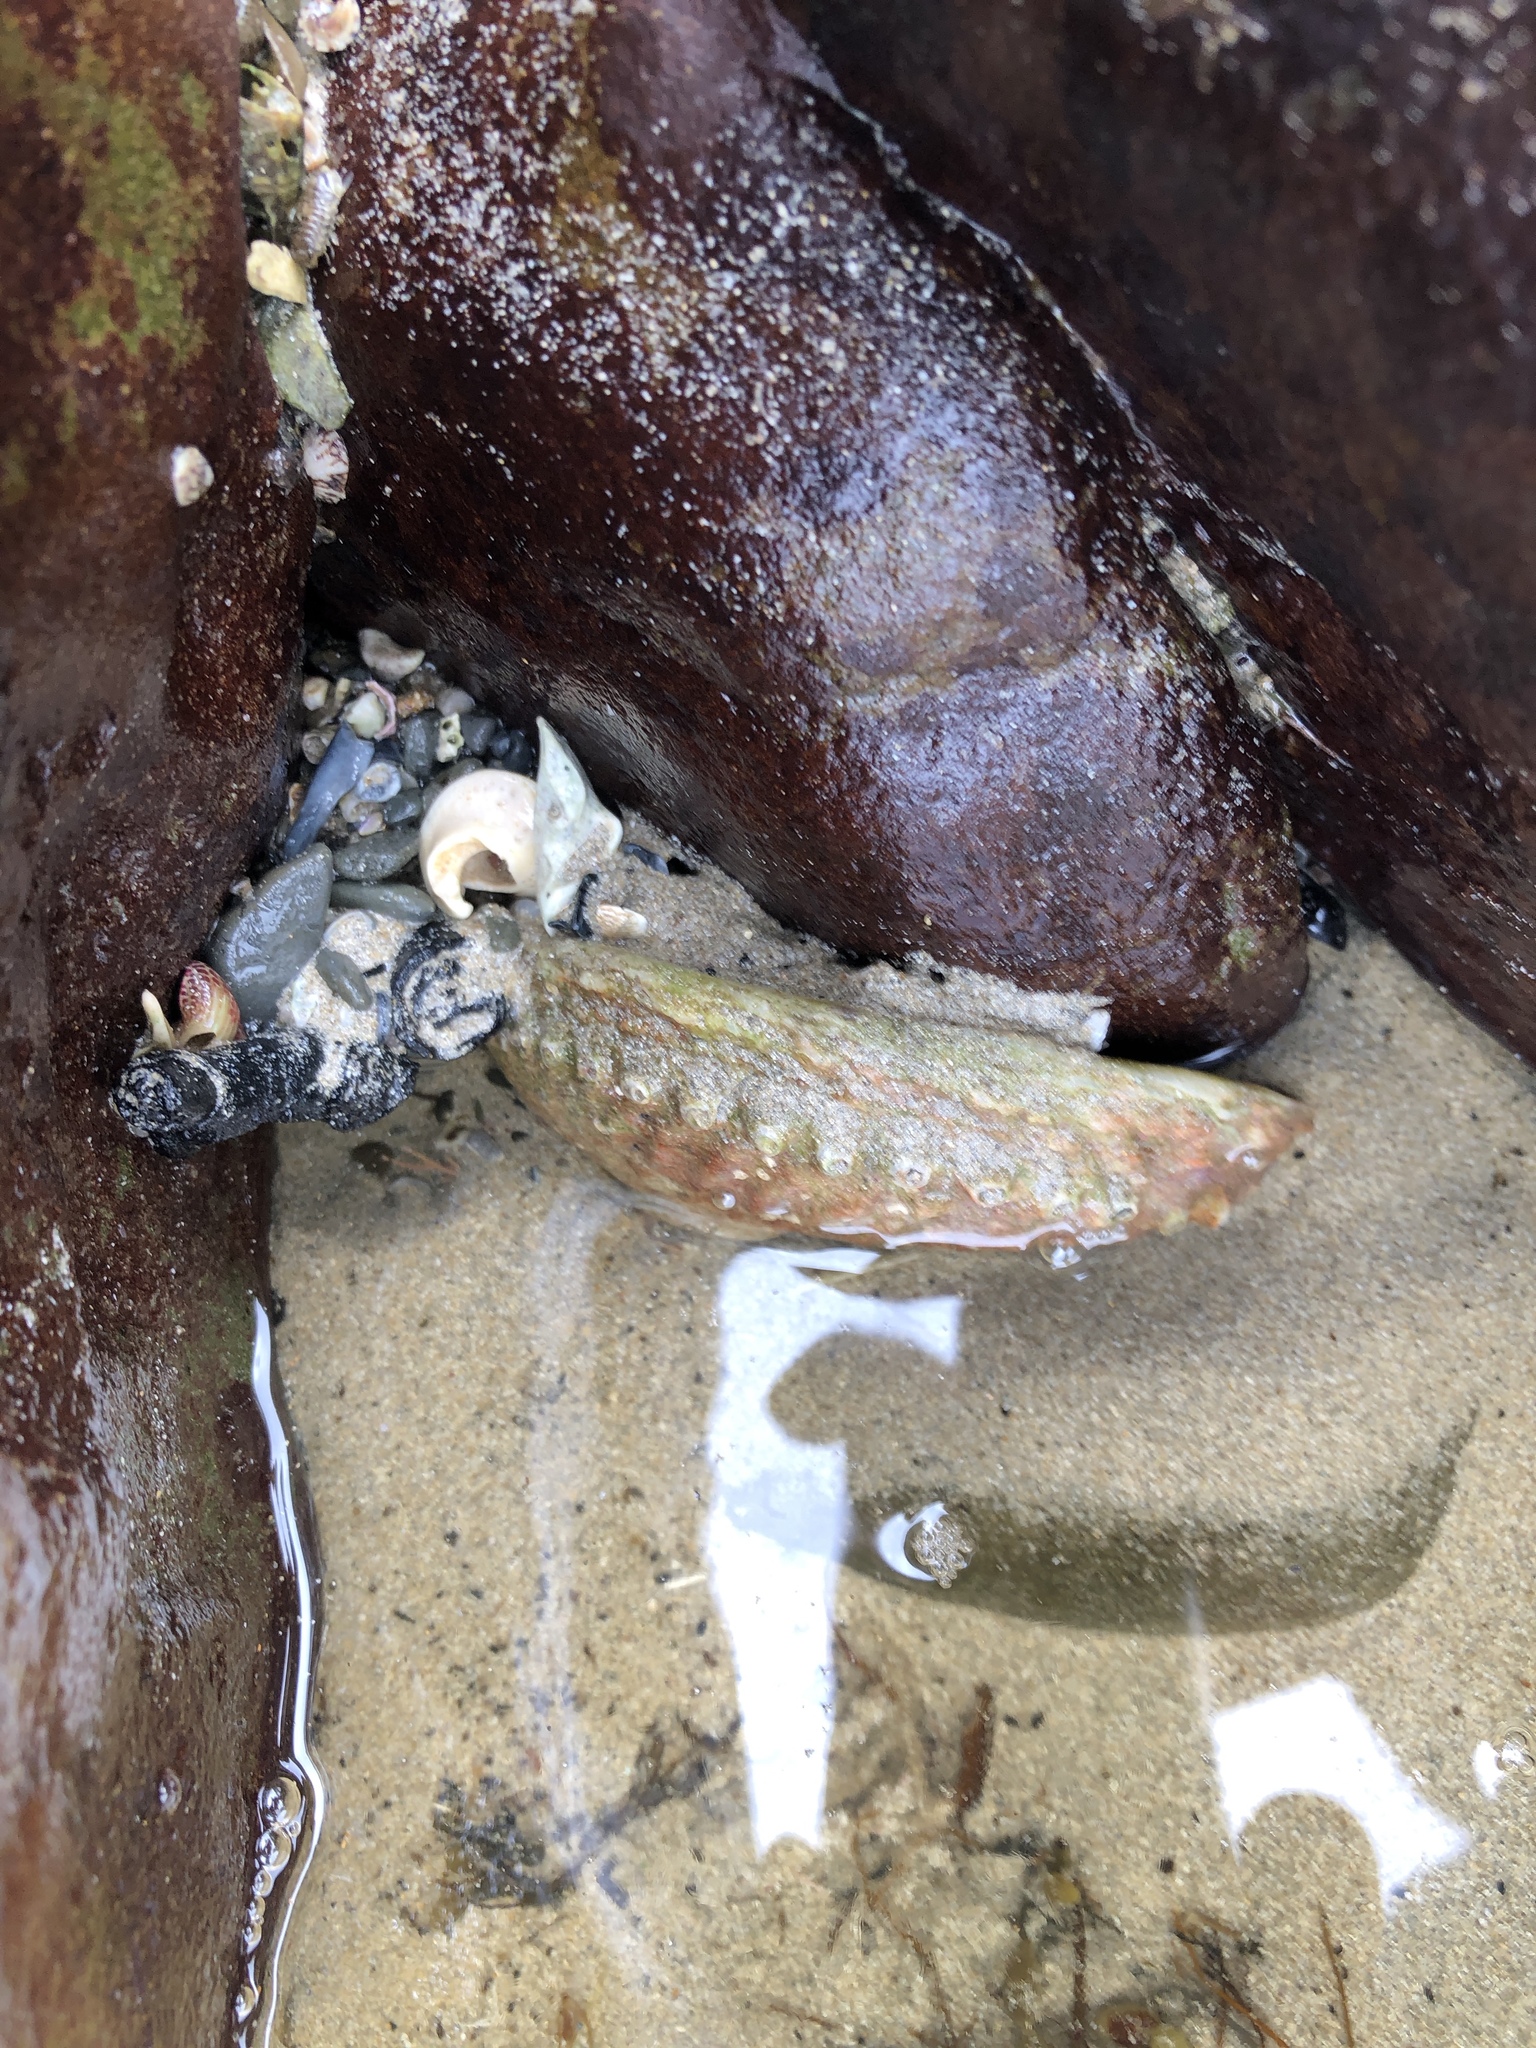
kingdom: Animalia
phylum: Mollusca
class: Gastropoda
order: Lepetellida
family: Haliotidae
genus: Haliotis
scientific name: Haliotis rubra
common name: Blacklip abalone
